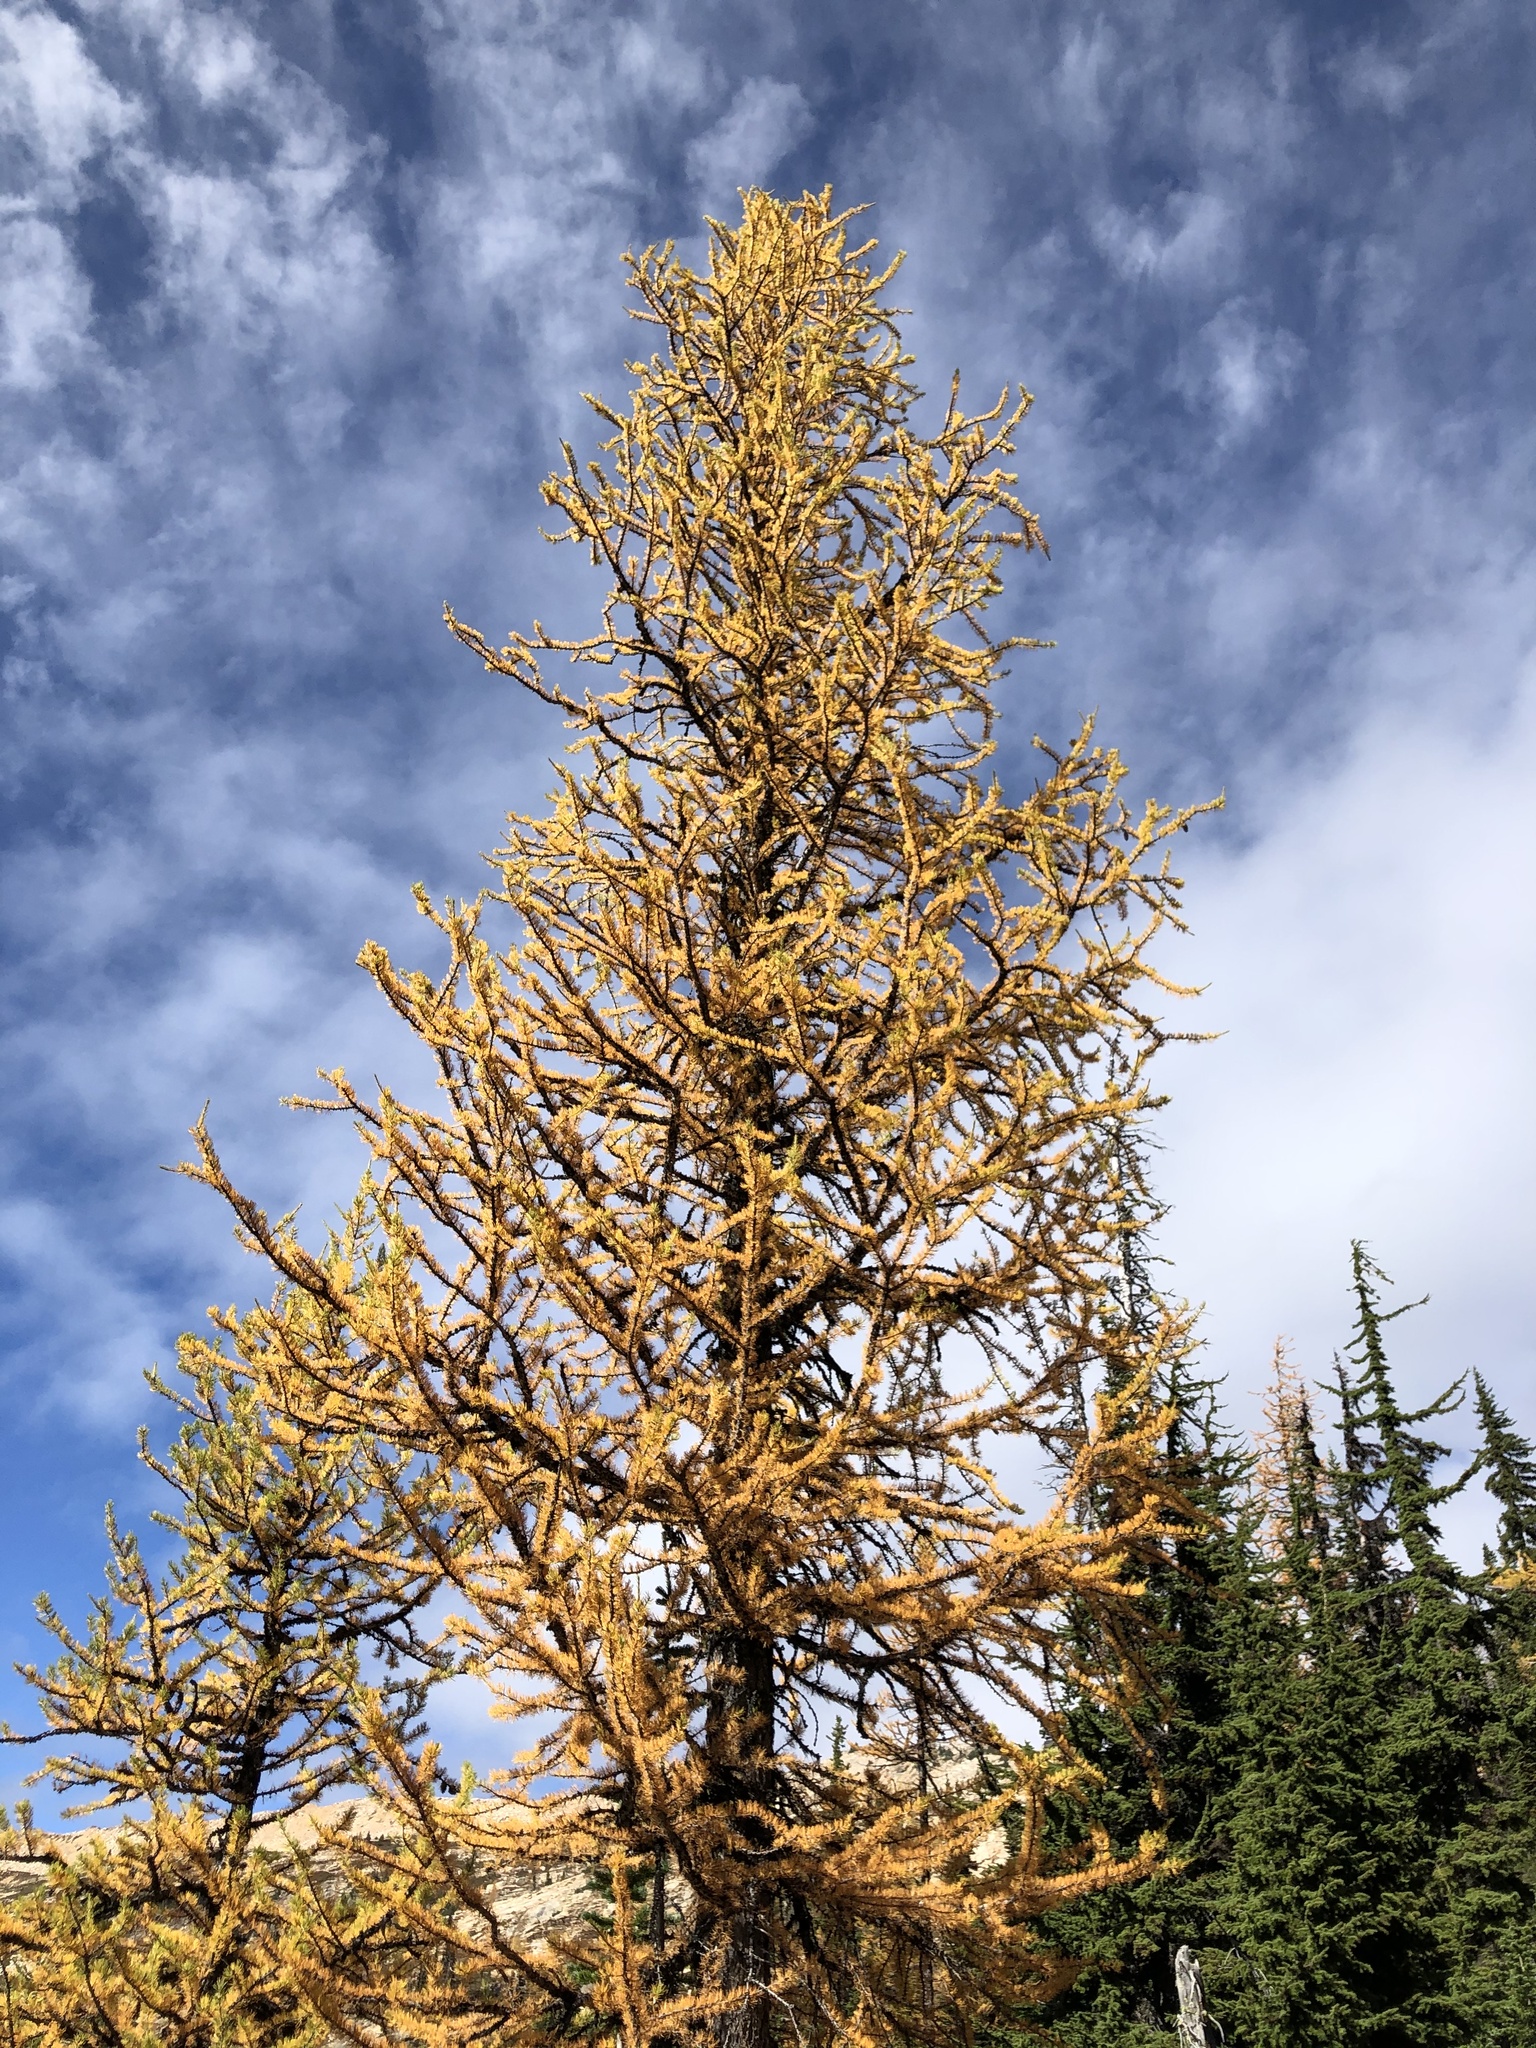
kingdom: Plantae
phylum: Tracheophyta
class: Pinopsida
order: Pinales
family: Pinaceae
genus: Larix
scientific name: Larix lyallii
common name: Alpine larch
